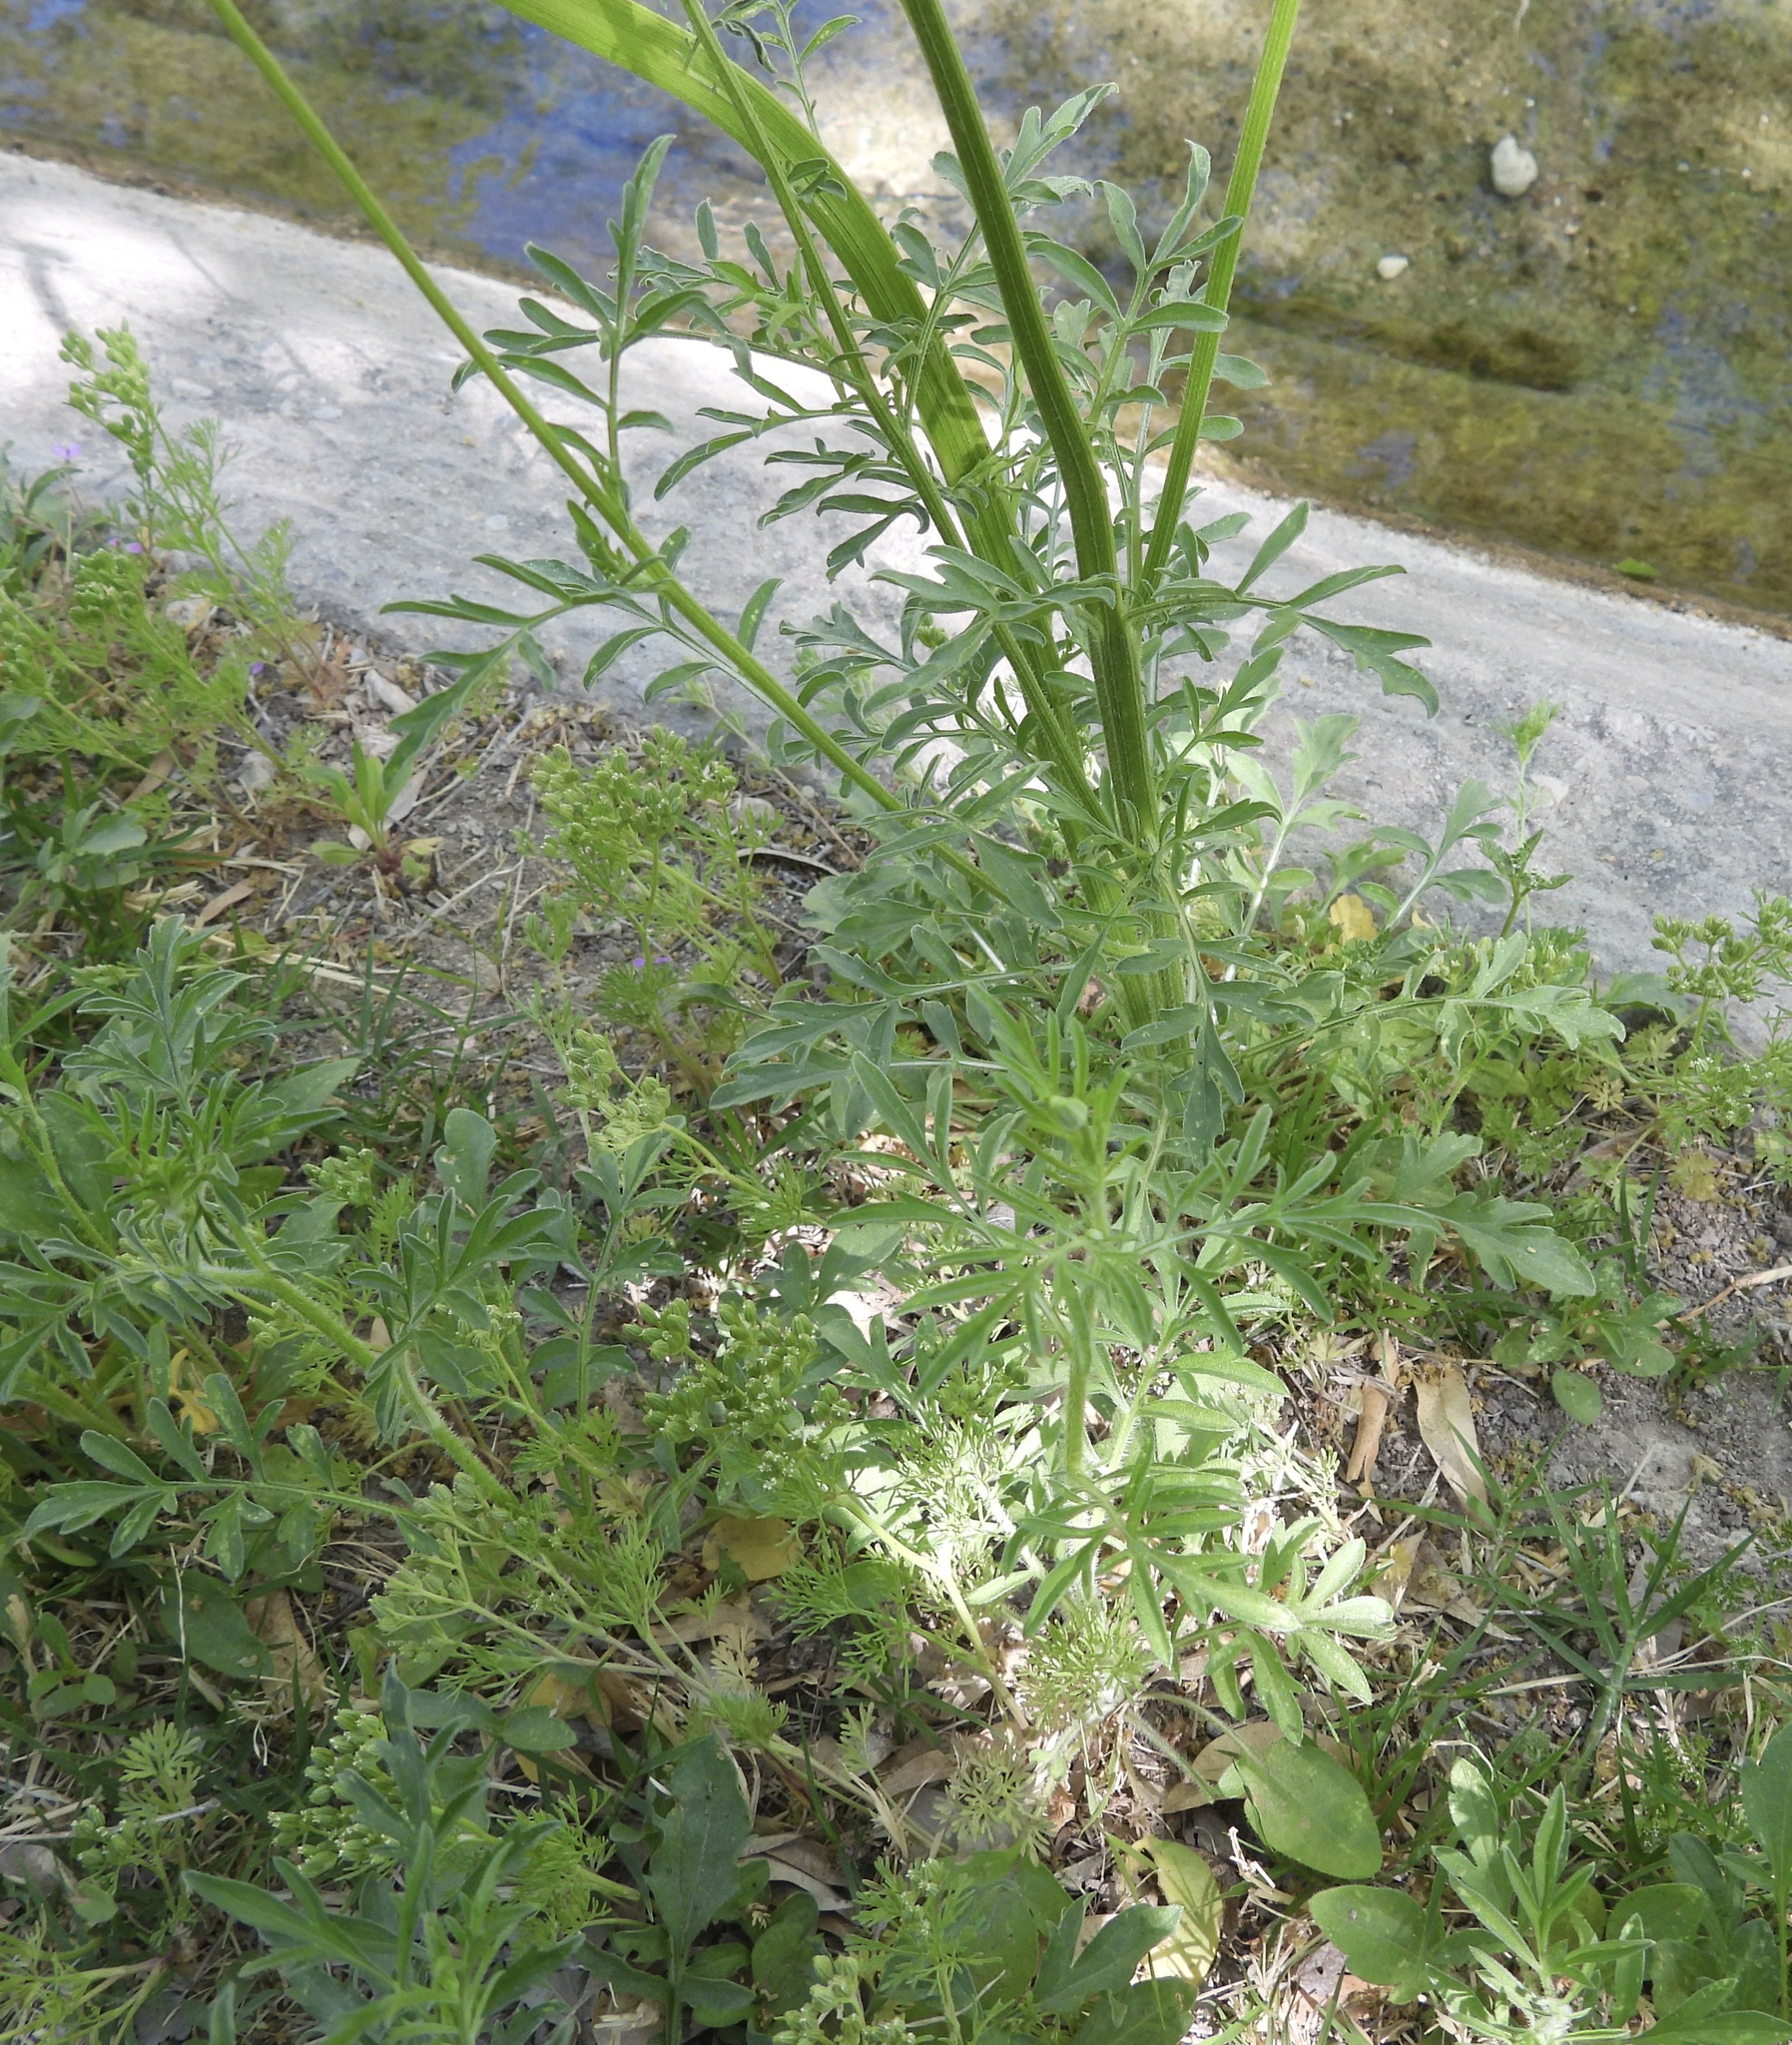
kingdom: Plantae
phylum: Tracheophyta
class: Magnoliopsida
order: Asterales
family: Asteraceae
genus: Ratibida
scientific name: Ratibida columnifera
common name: Prairie coneflower
